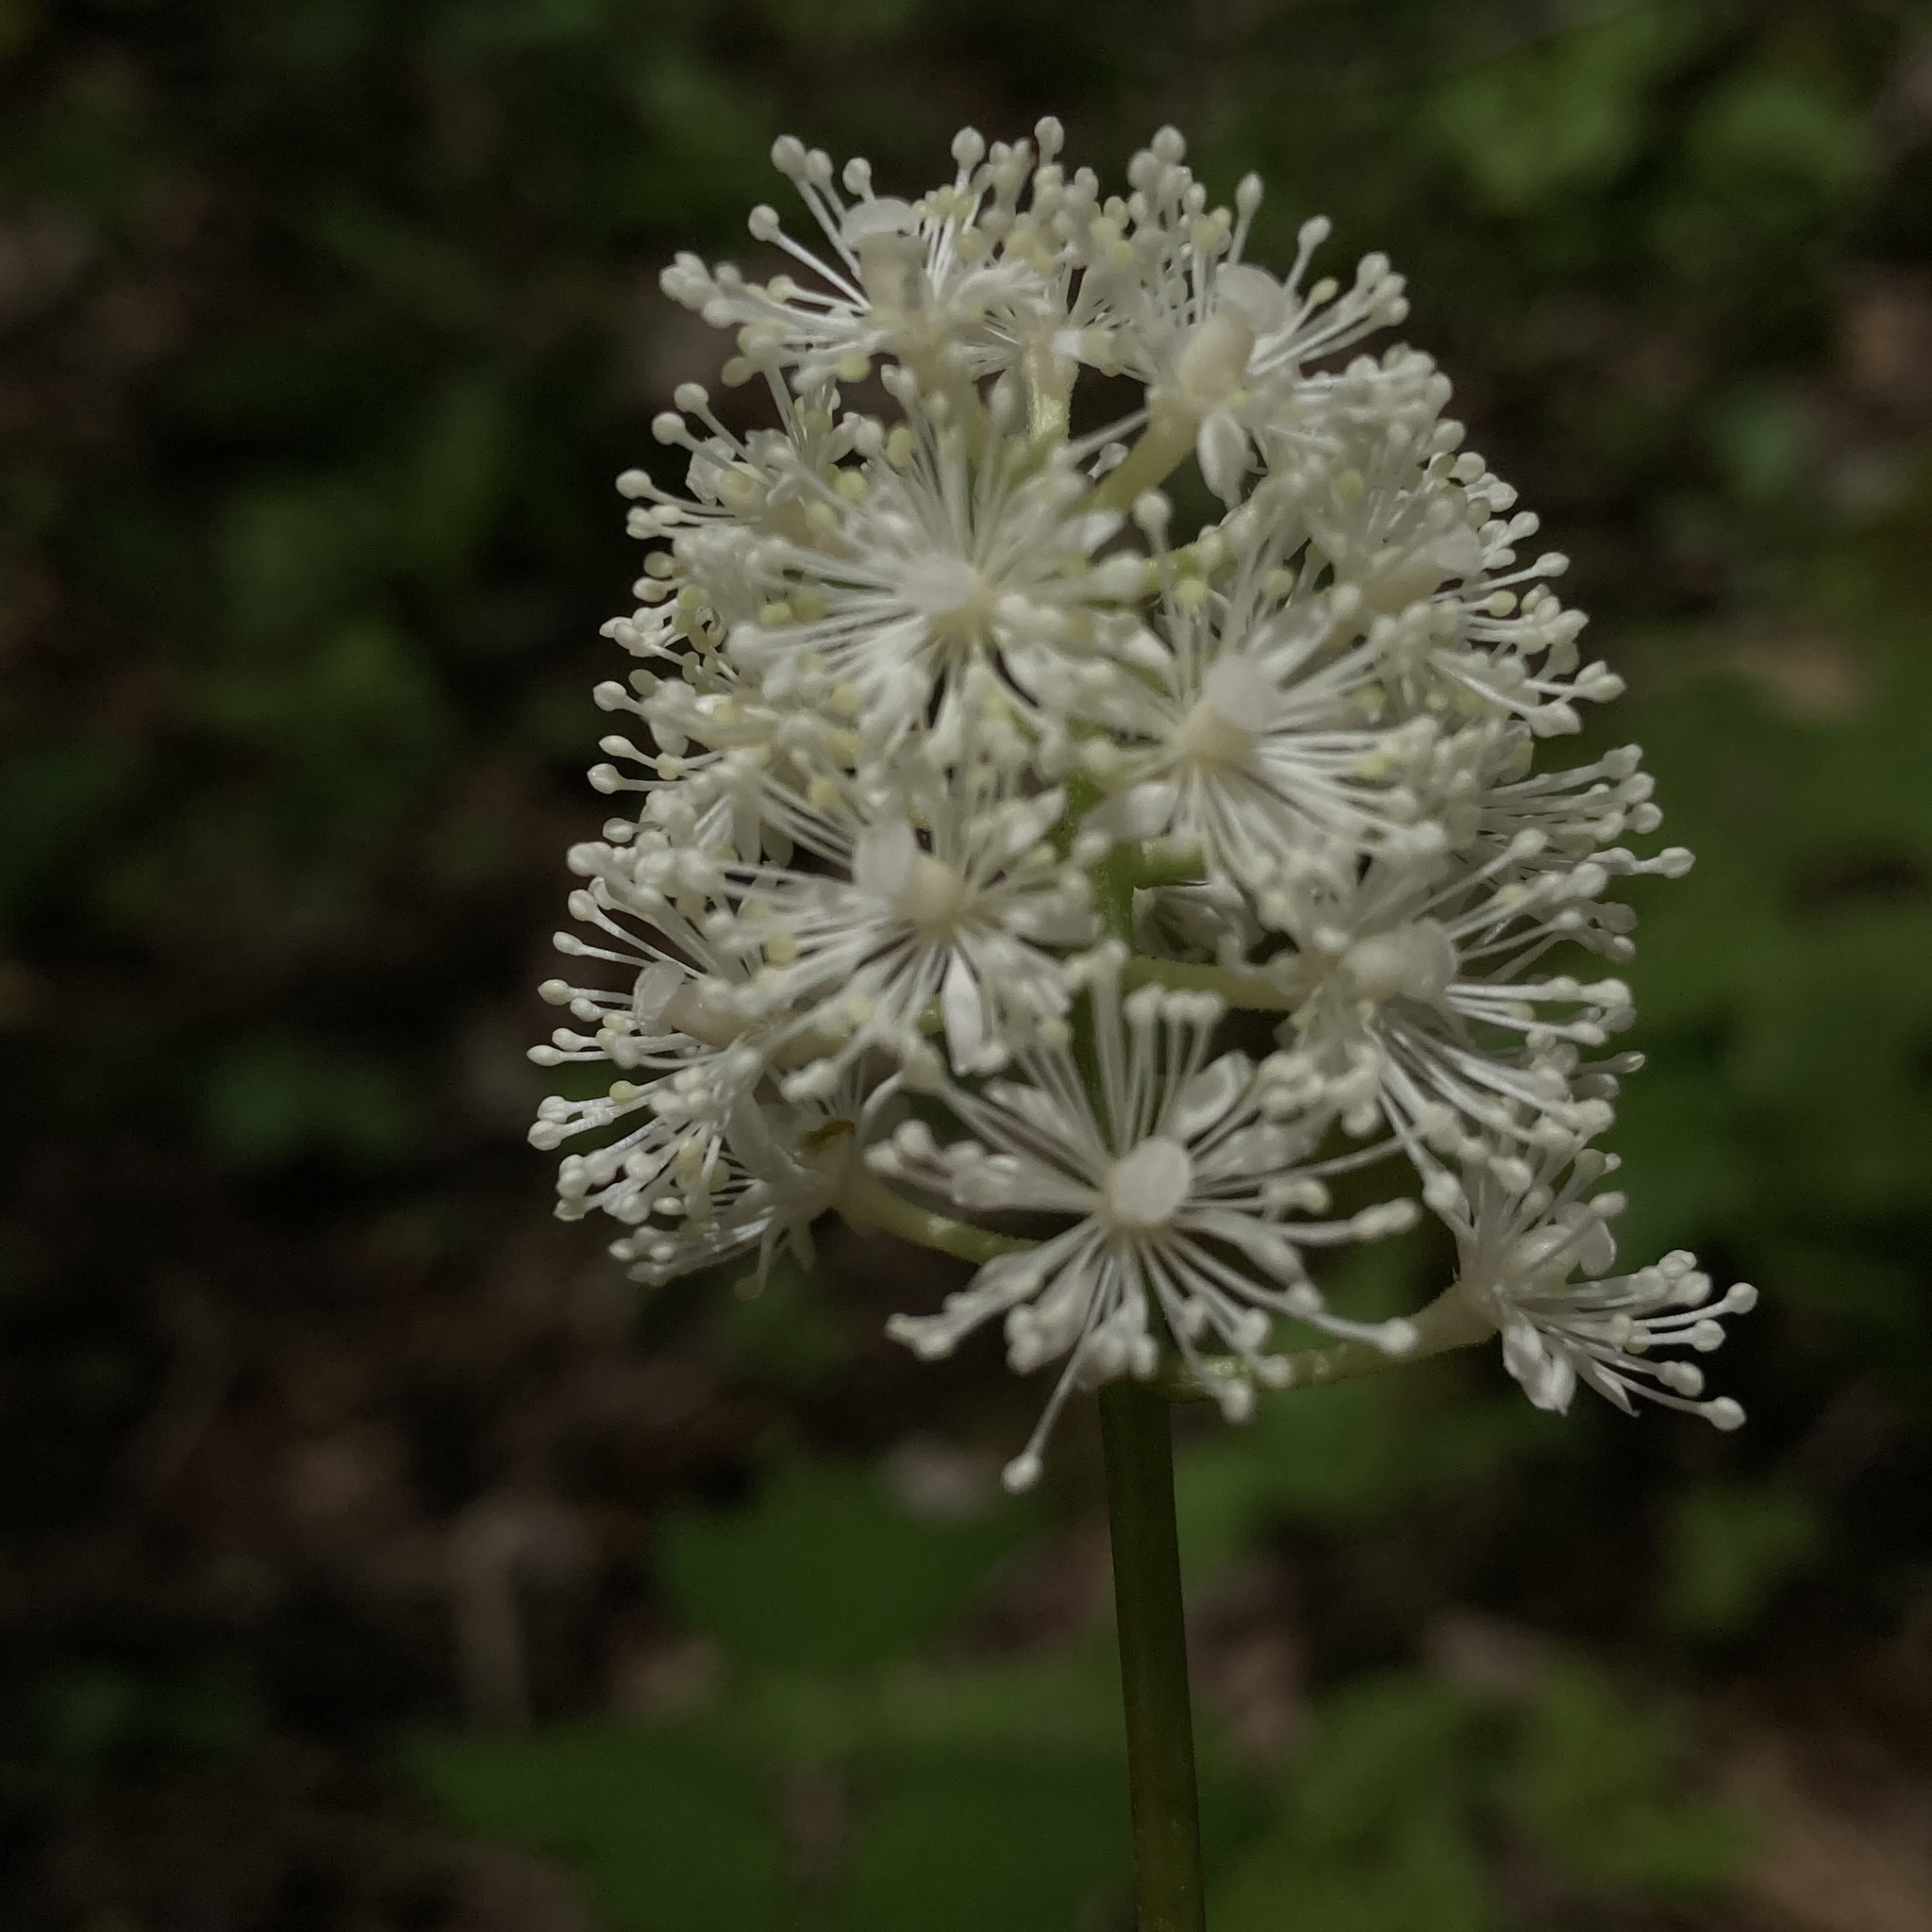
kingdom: Plantae
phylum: Tracheophyta
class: Magnoliopsida
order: Ranunculales
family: Ranunculaceae
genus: Actaea
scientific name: Actaea pachypoda
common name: Doll's-eyes
